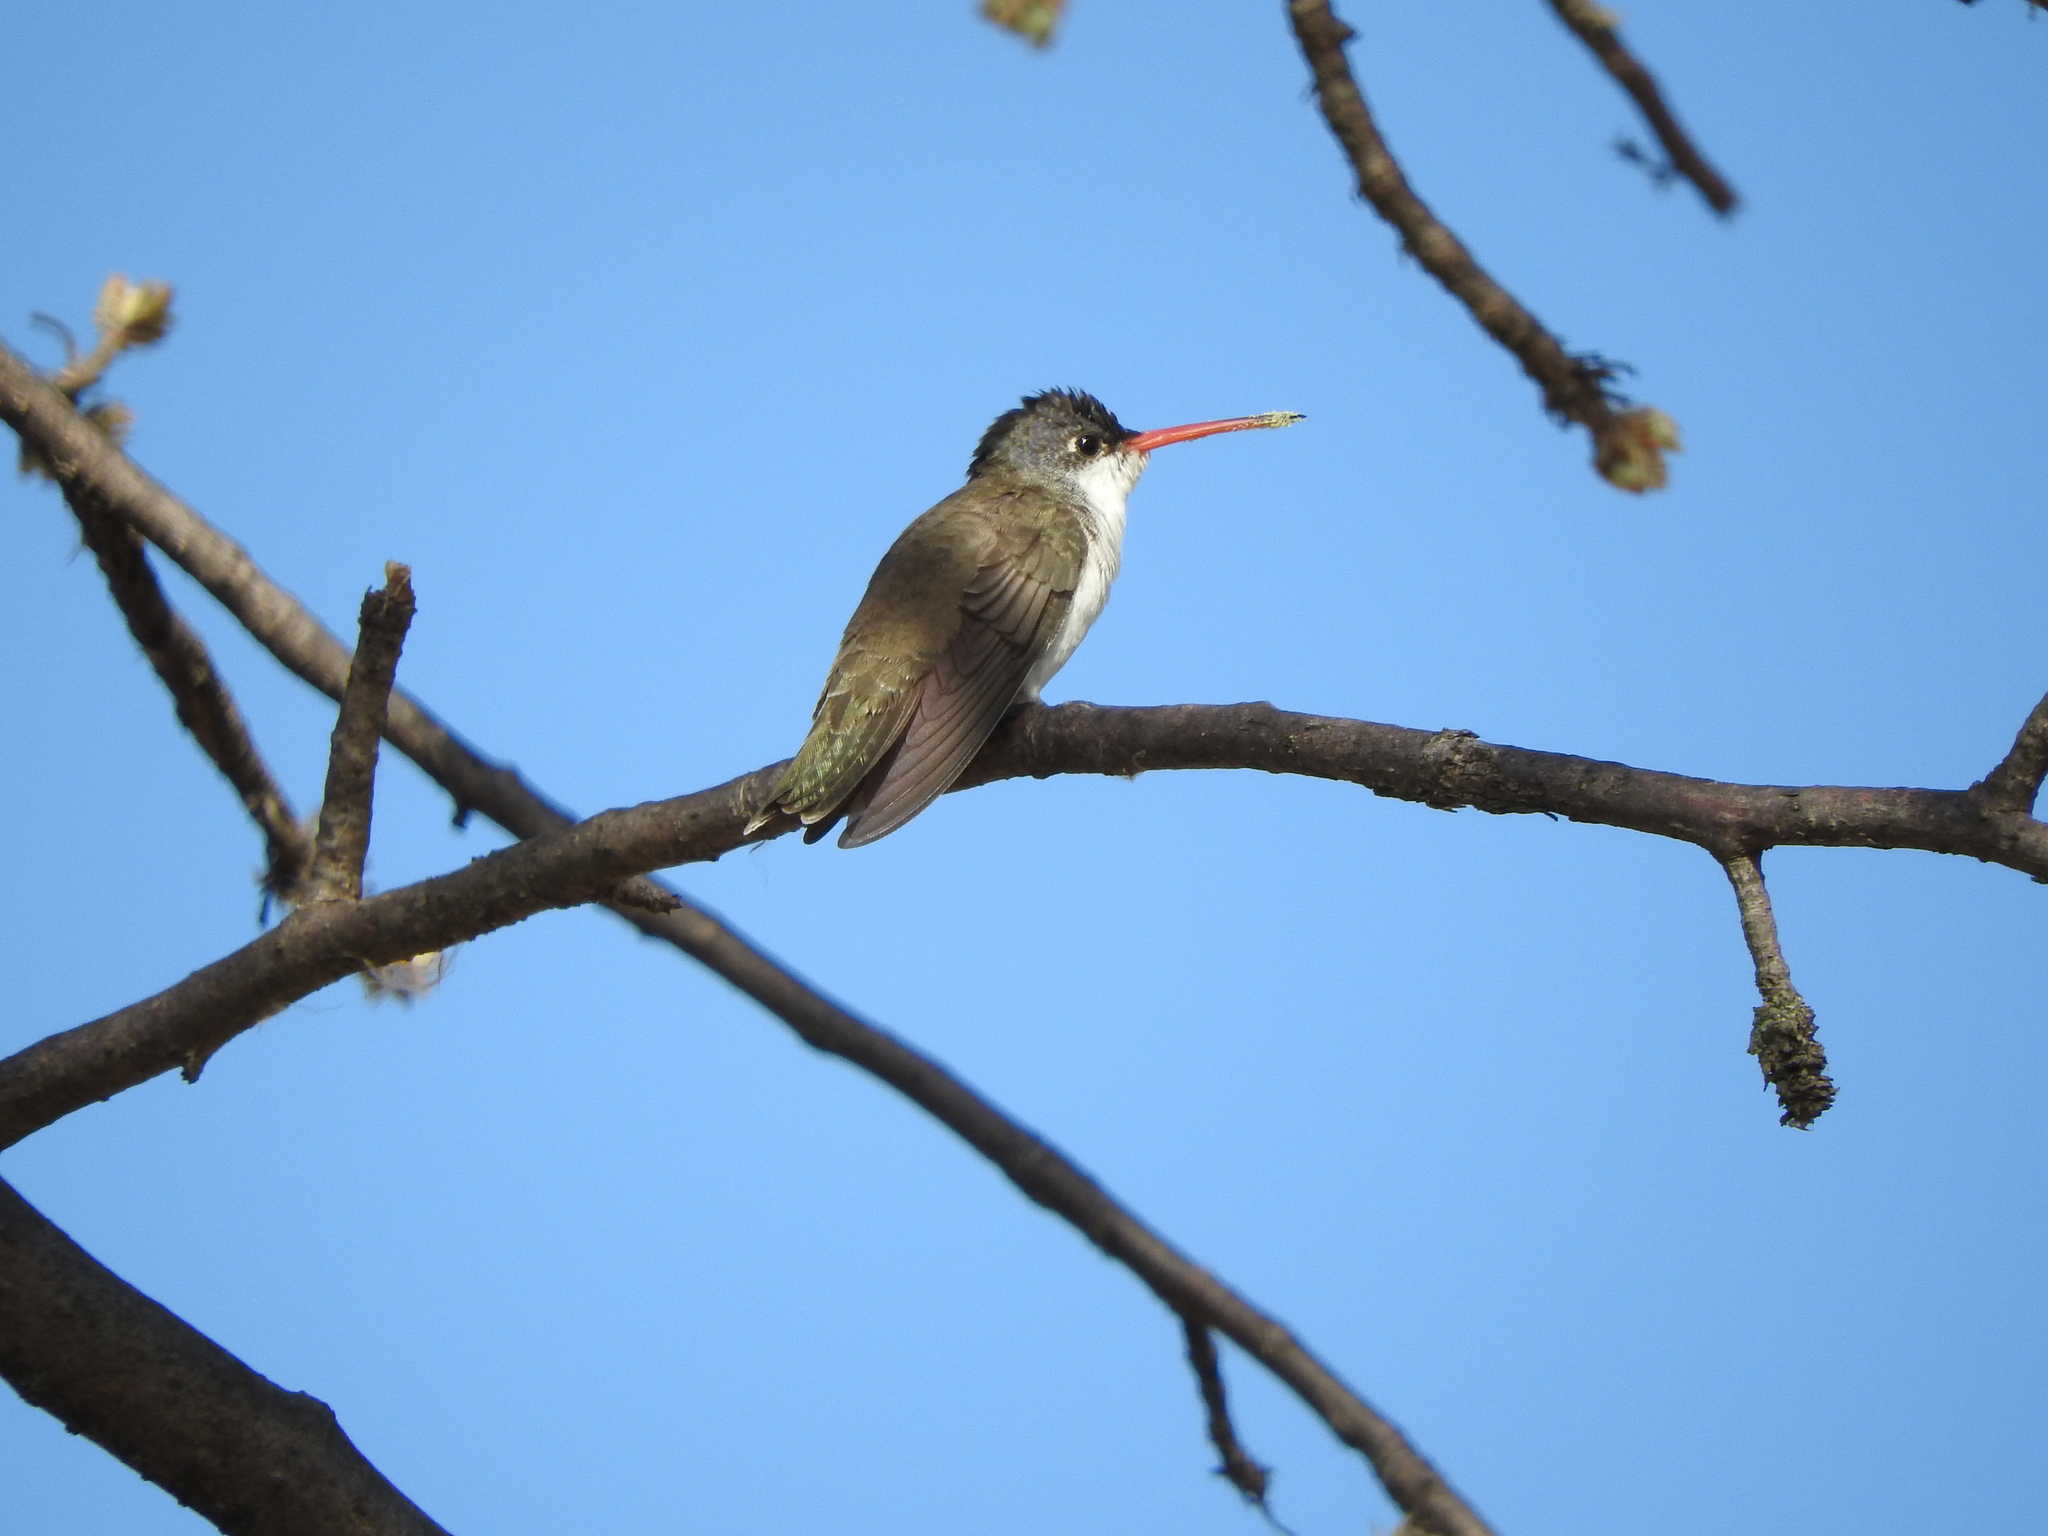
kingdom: Animalia
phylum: Chordata
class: Aves
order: Apodiformes
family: Trochilidae
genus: Leucolia
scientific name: Leucolia violiceps
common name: Violet-crowned hummingbird
